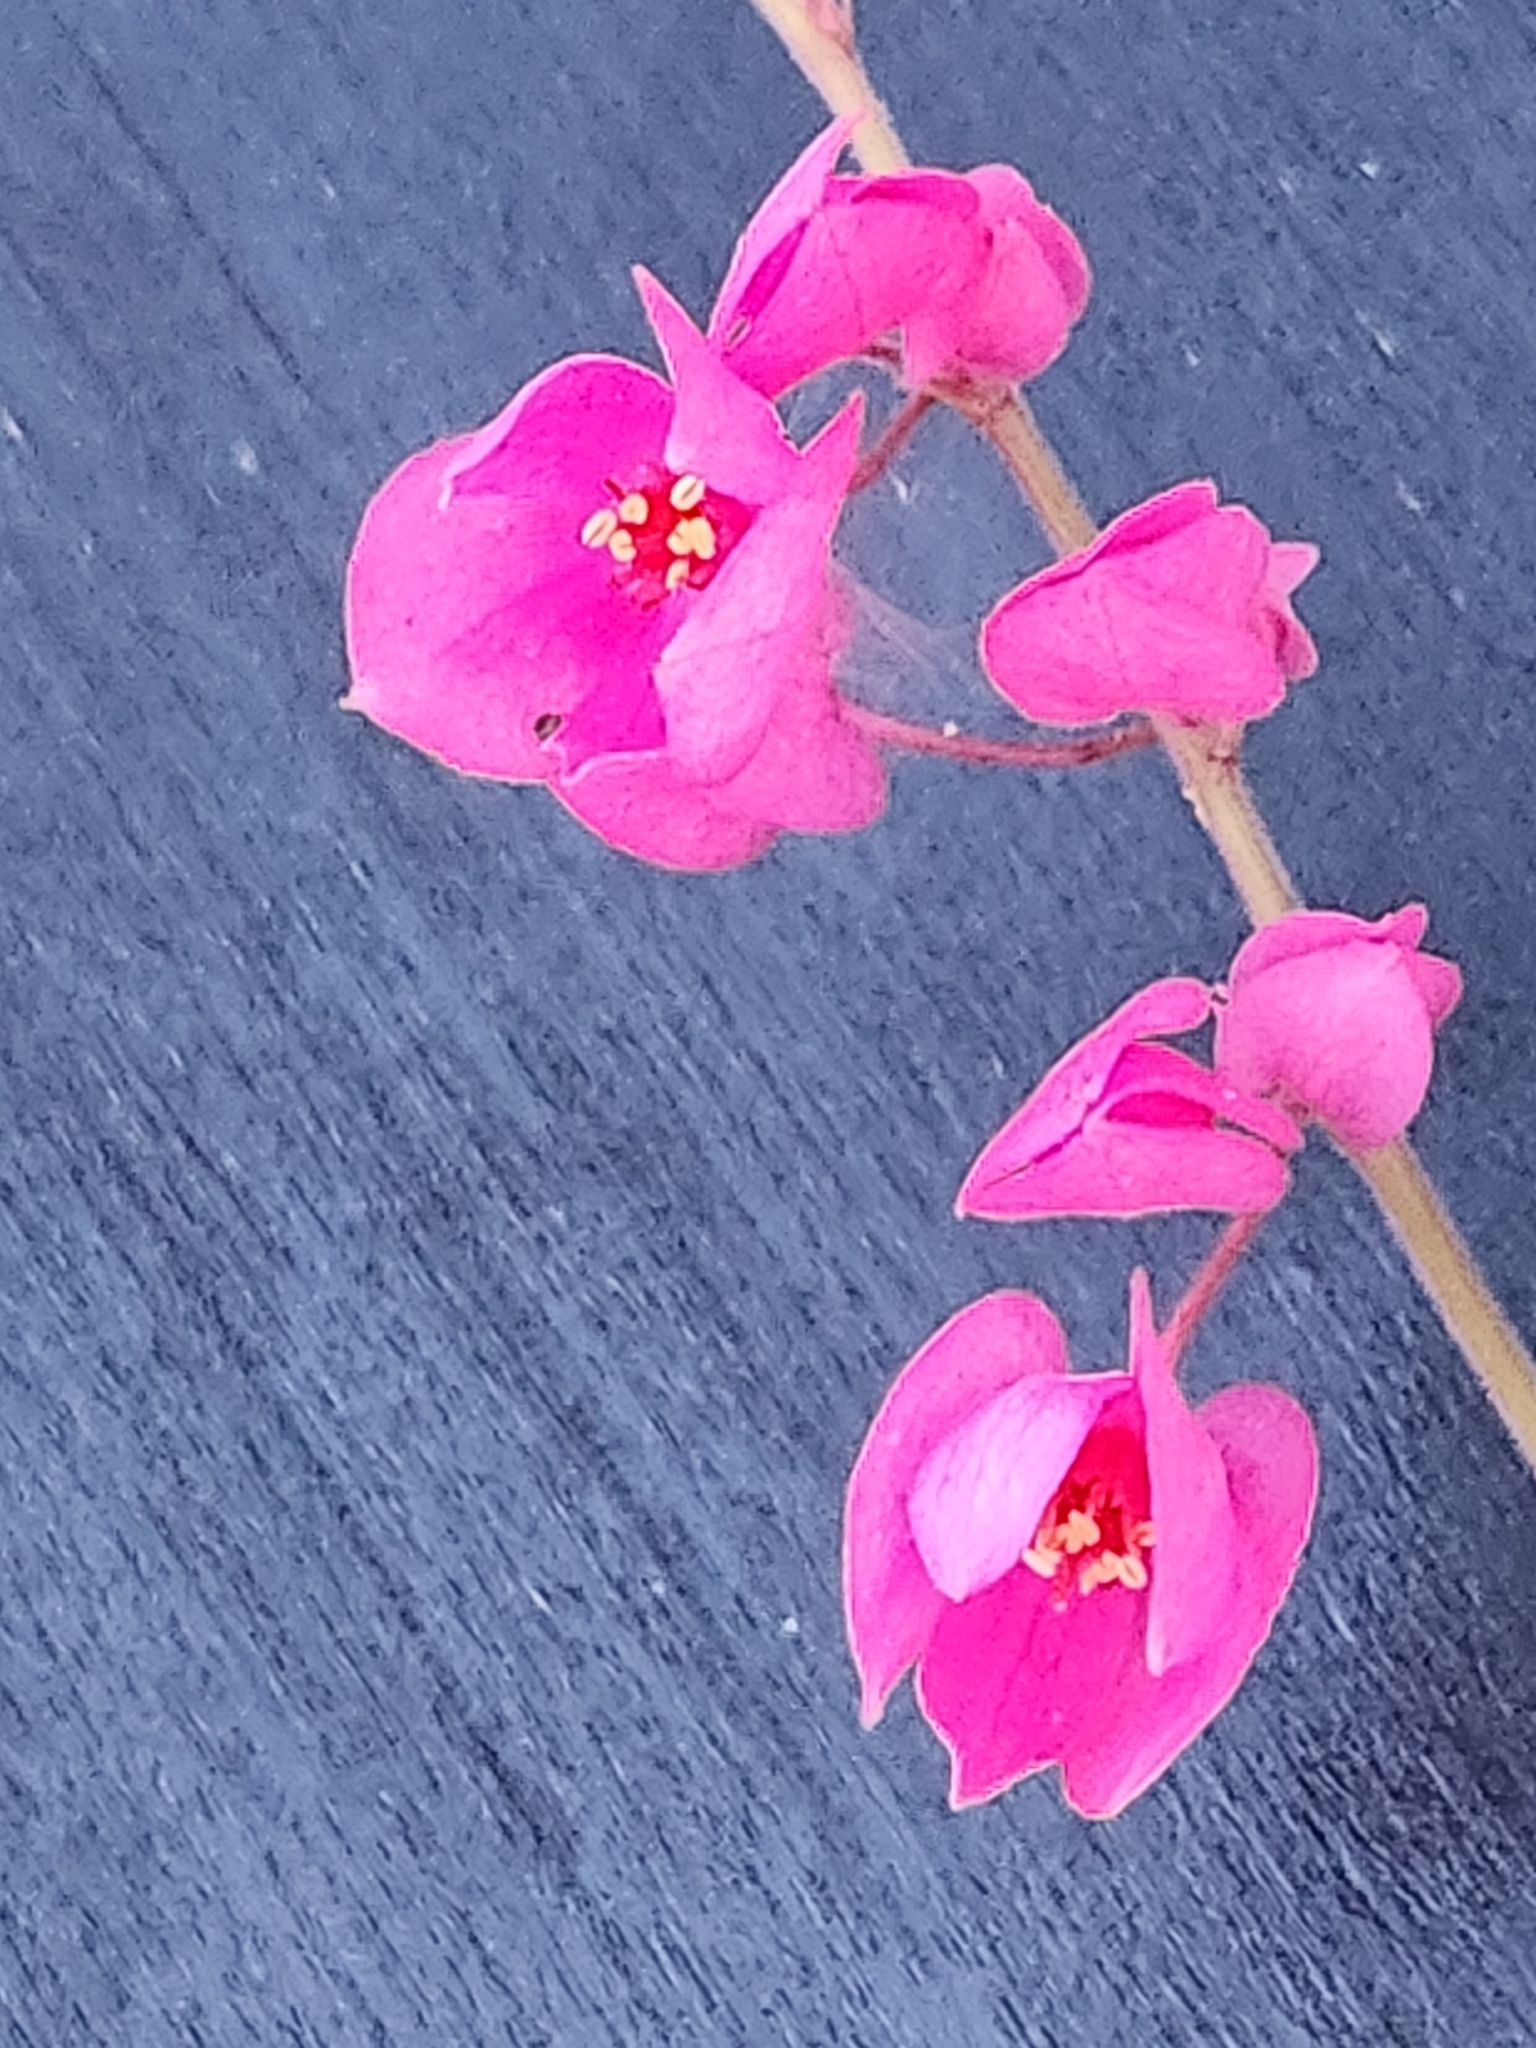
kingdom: Plantae
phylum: Tracheophyta
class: Magnoliopsida
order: Caryophyllales
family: Polygonaceae
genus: Antigonon
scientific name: Antigonon leptopus
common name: Coral vine
